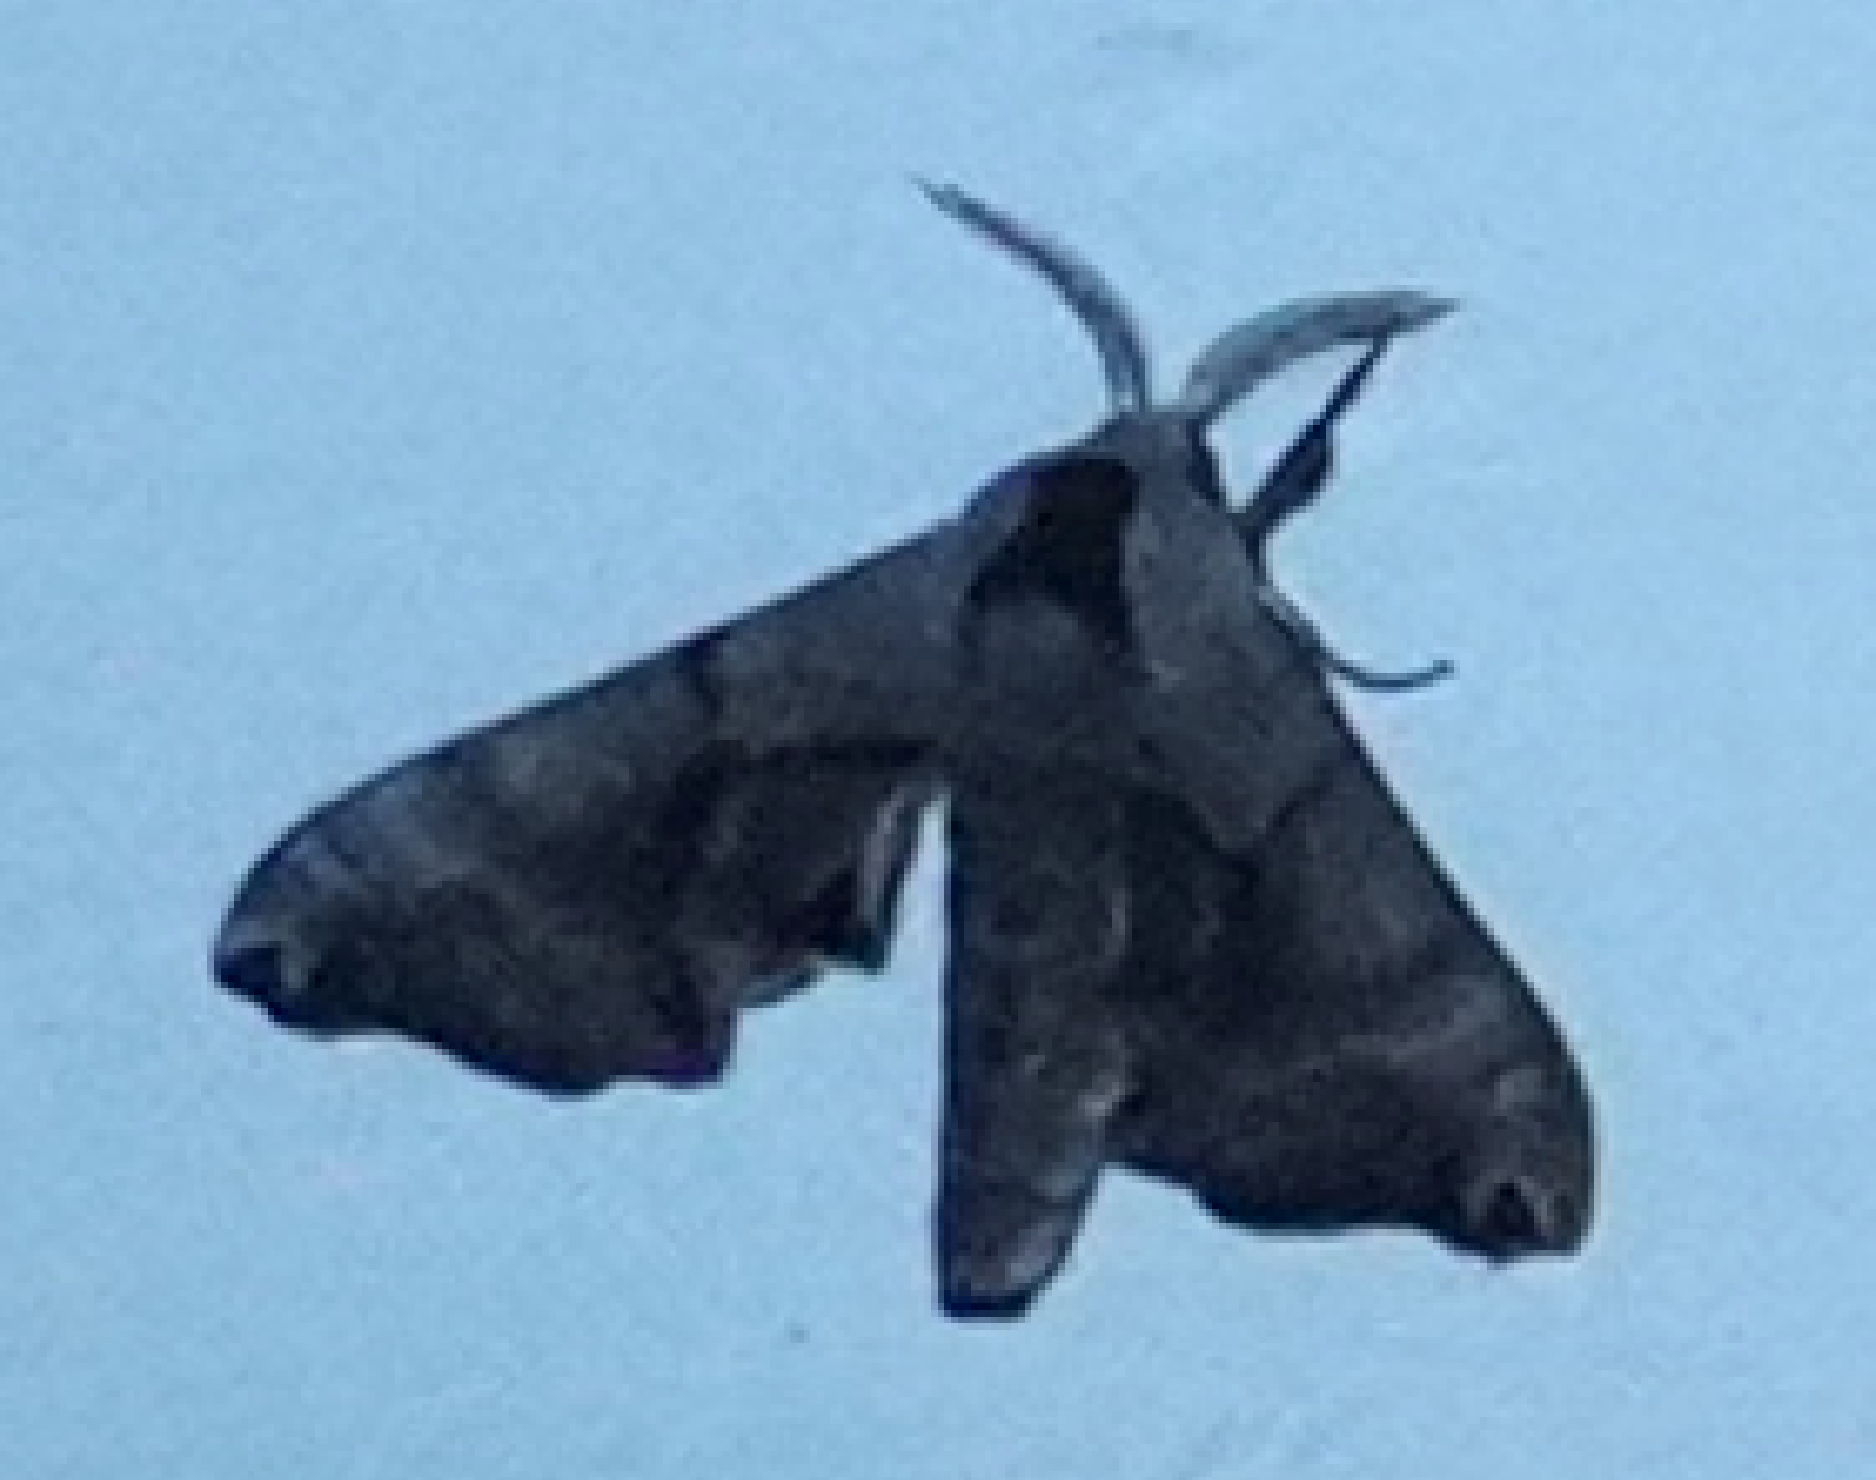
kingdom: Animalia
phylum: Arthropoda
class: Insecta
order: Lepidoptera
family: Sphingidae
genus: Smerinthus
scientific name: Smerinthus jamaicensis
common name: Twin spotted sphinx
